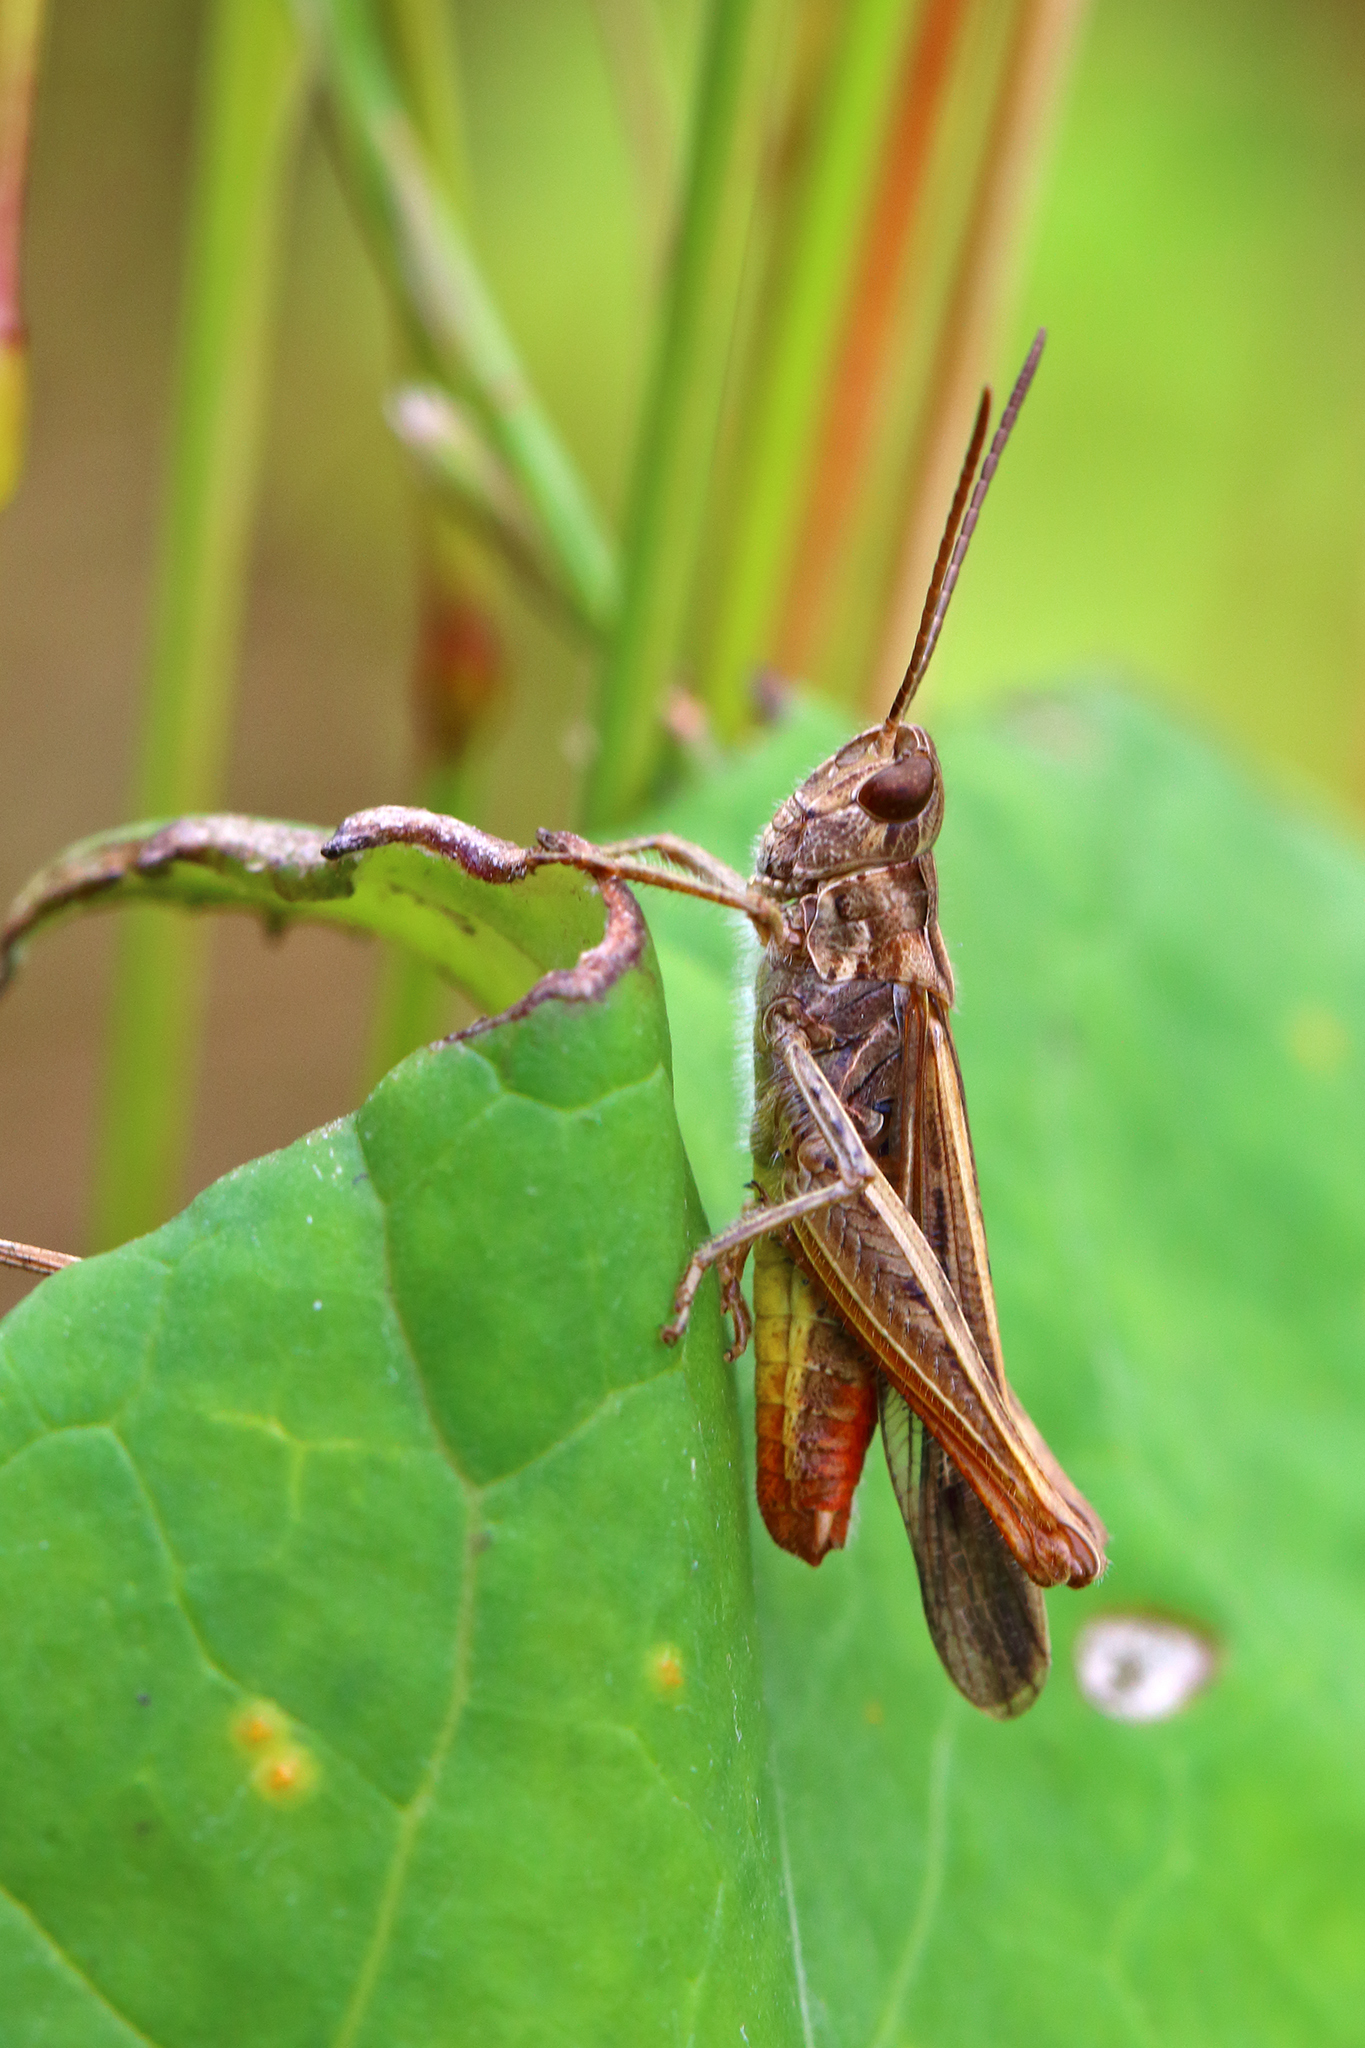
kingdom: Animalia
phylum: Arthropoda
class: Insecta
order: Orthoptera
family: Acrididae
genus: Chorthippus
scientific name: Chorthippus brunneus
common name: Field grasshopper
